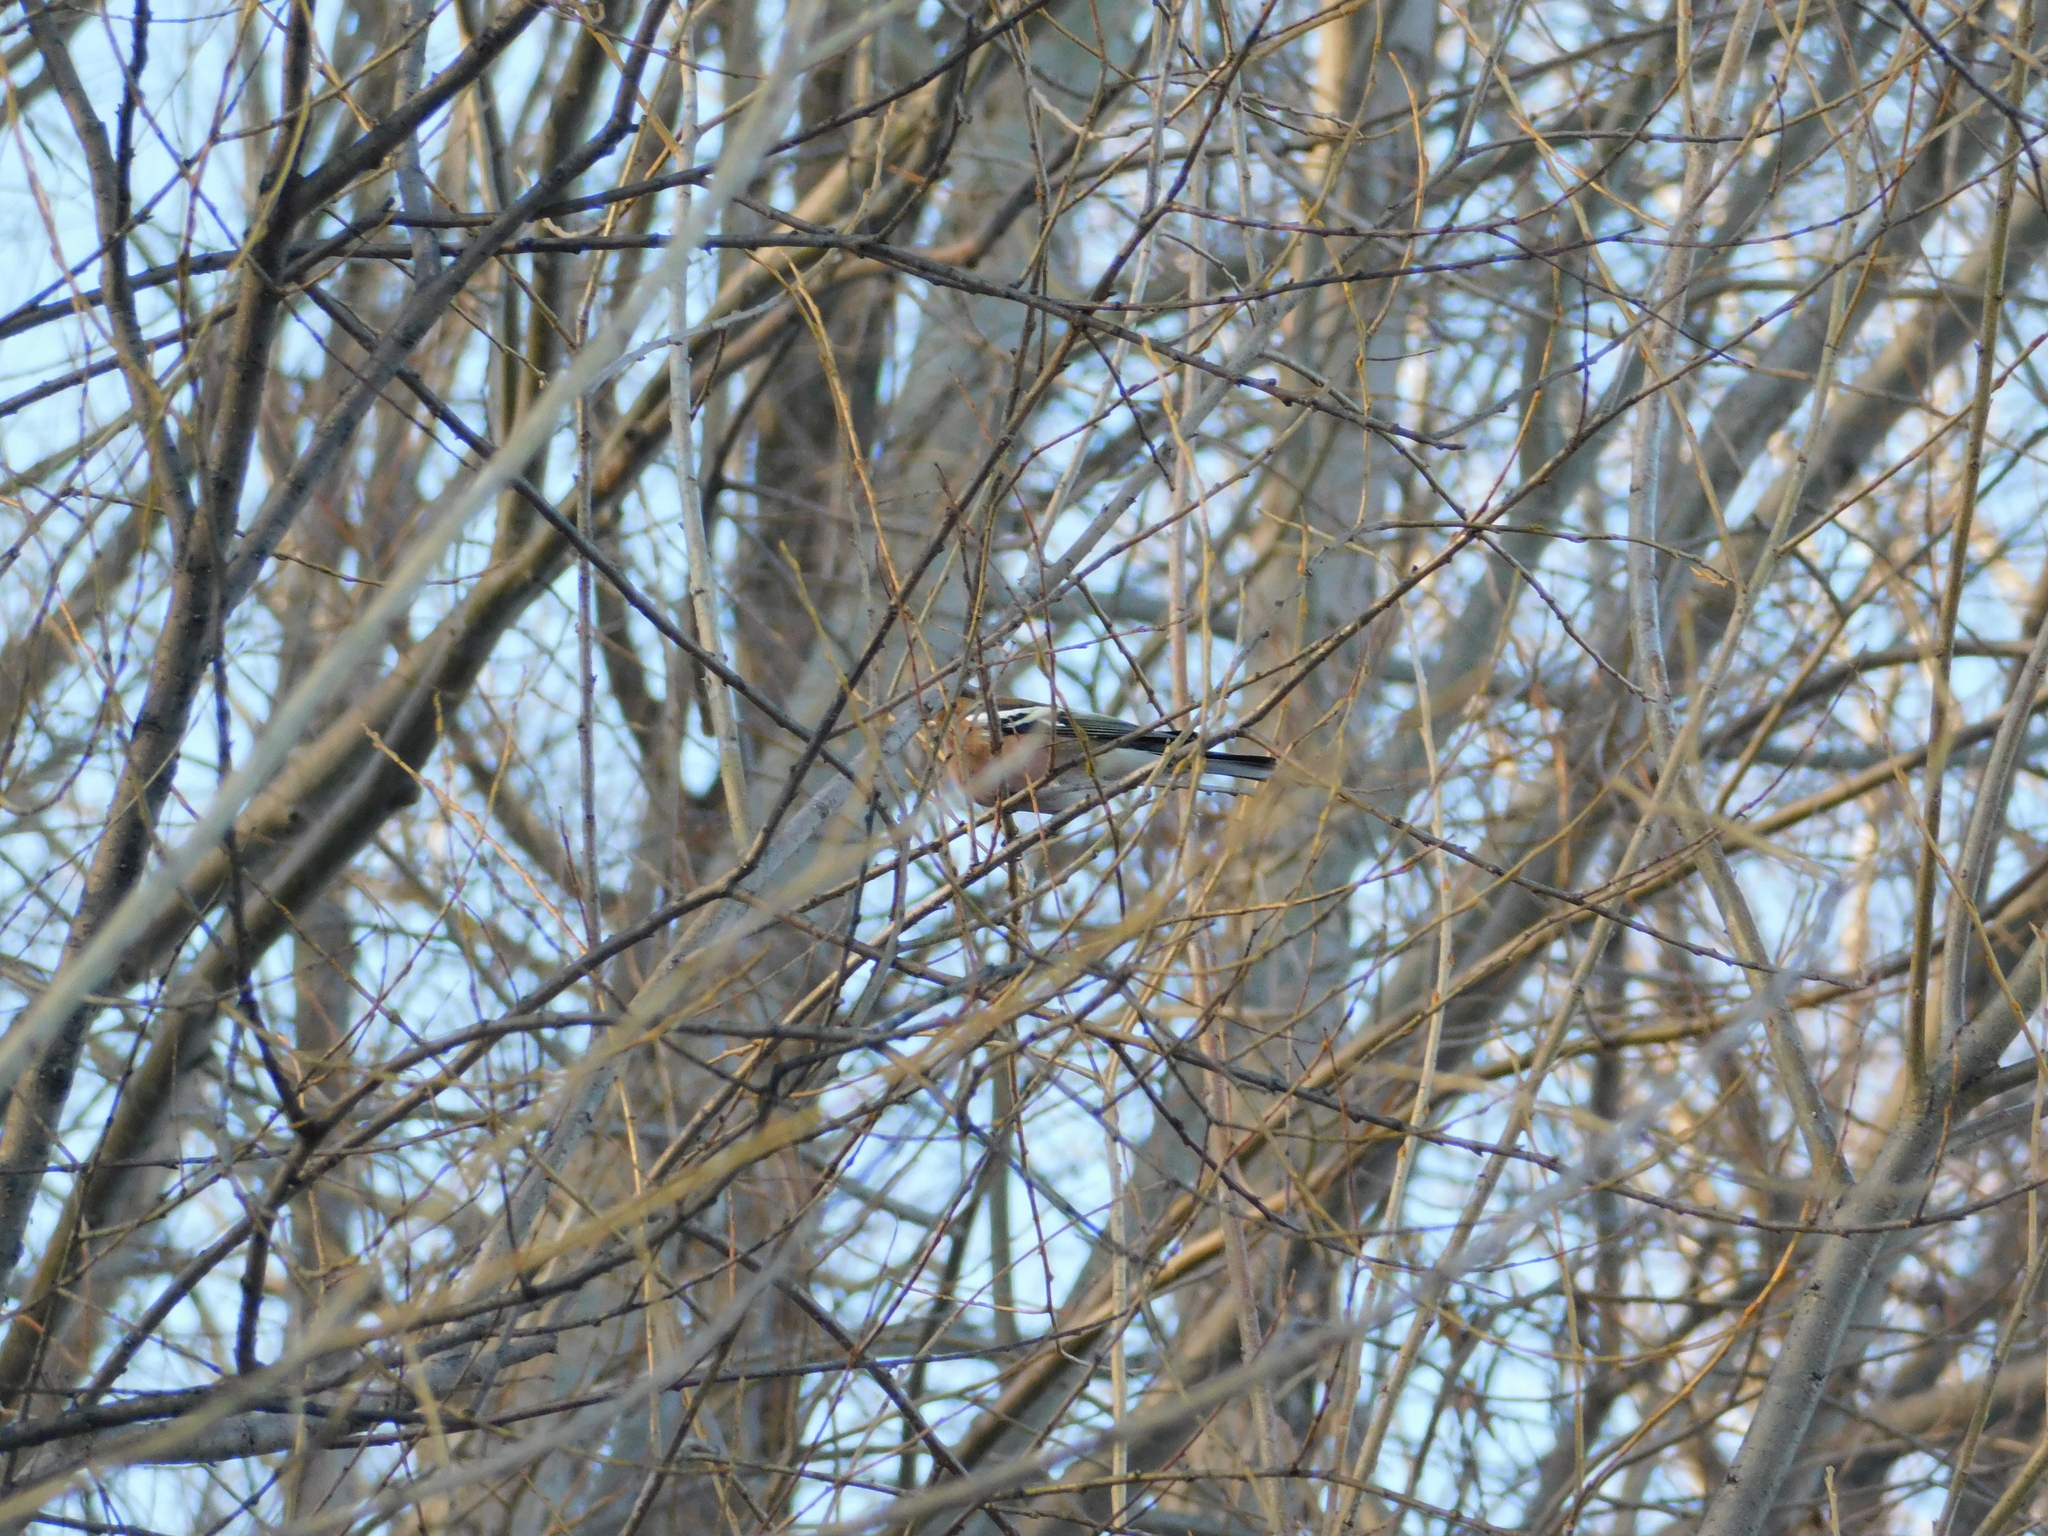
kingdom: Animalia
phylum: Chordata
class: Aves
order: Passeriformes
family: Fringillidae
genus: Fringilla
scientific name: Fringilla coelebs
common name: Common chaffinch
